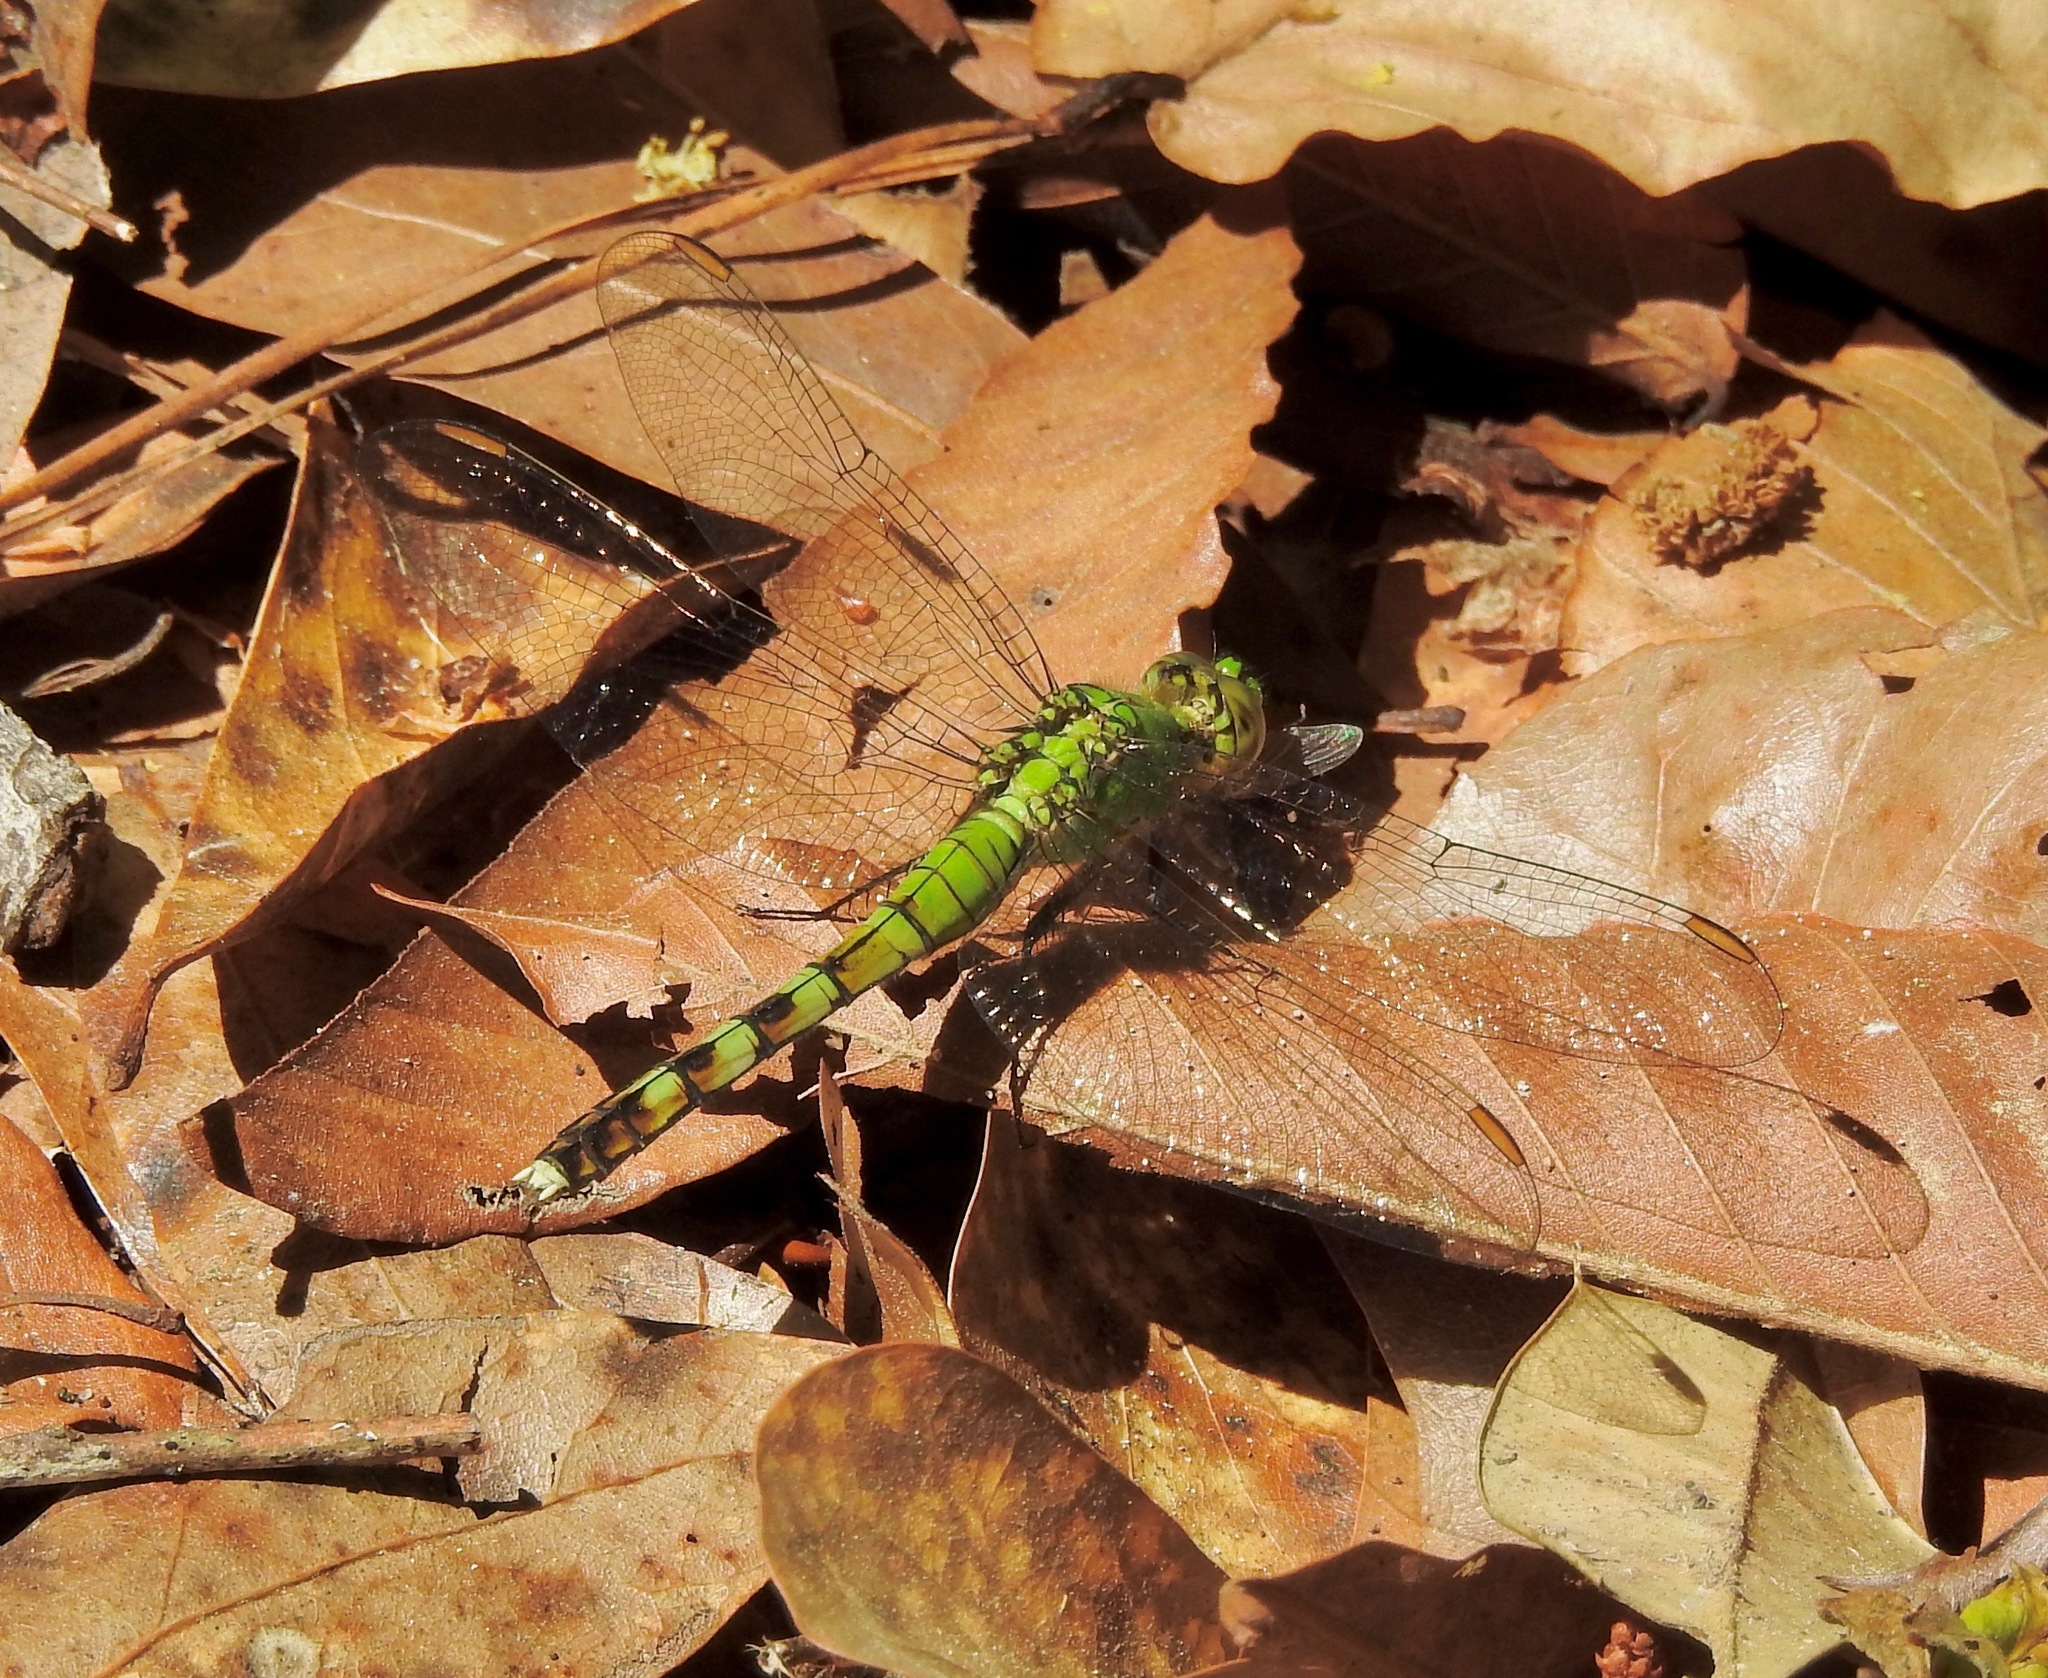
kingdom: Animalia
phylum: Arthropoda
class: Insecta
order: Odonata
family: Libellulidae
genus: Erythemis
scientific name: Erythemis simplicicollis
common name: Eastern pondhawk
